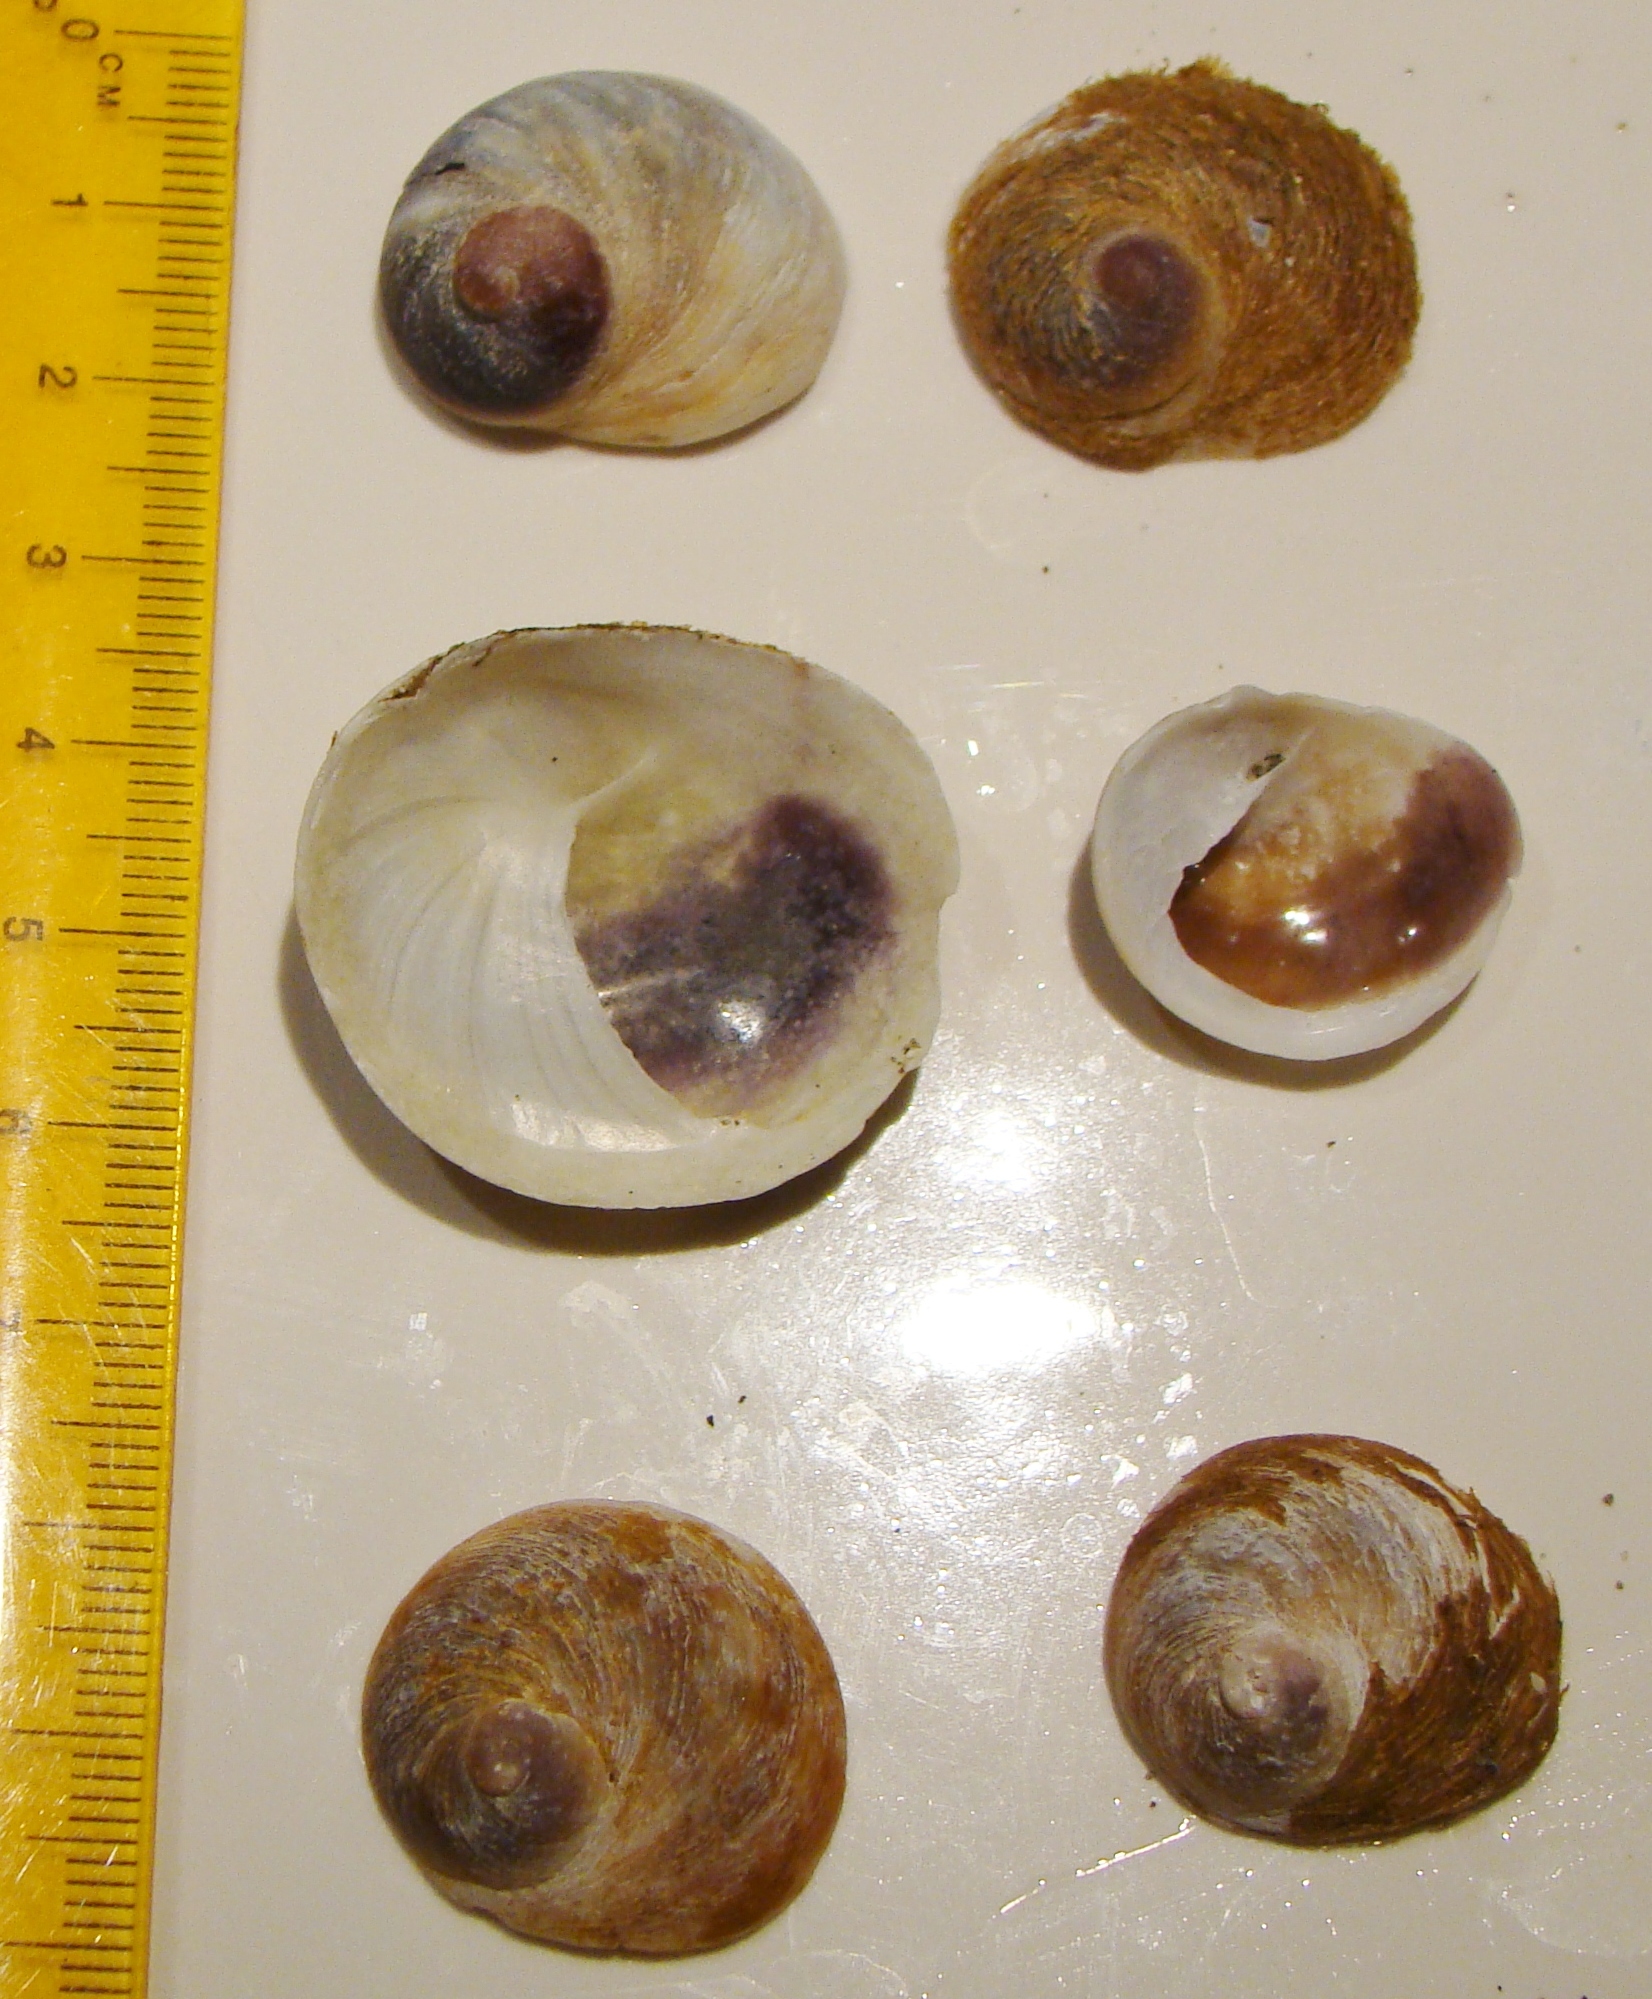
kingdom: Animalia
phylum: Mollusca
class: Gastropoda
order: Littorinimorpha
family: Calyptraeidae
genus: Sigapatella
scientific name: Sigapatella novaezelandiae
